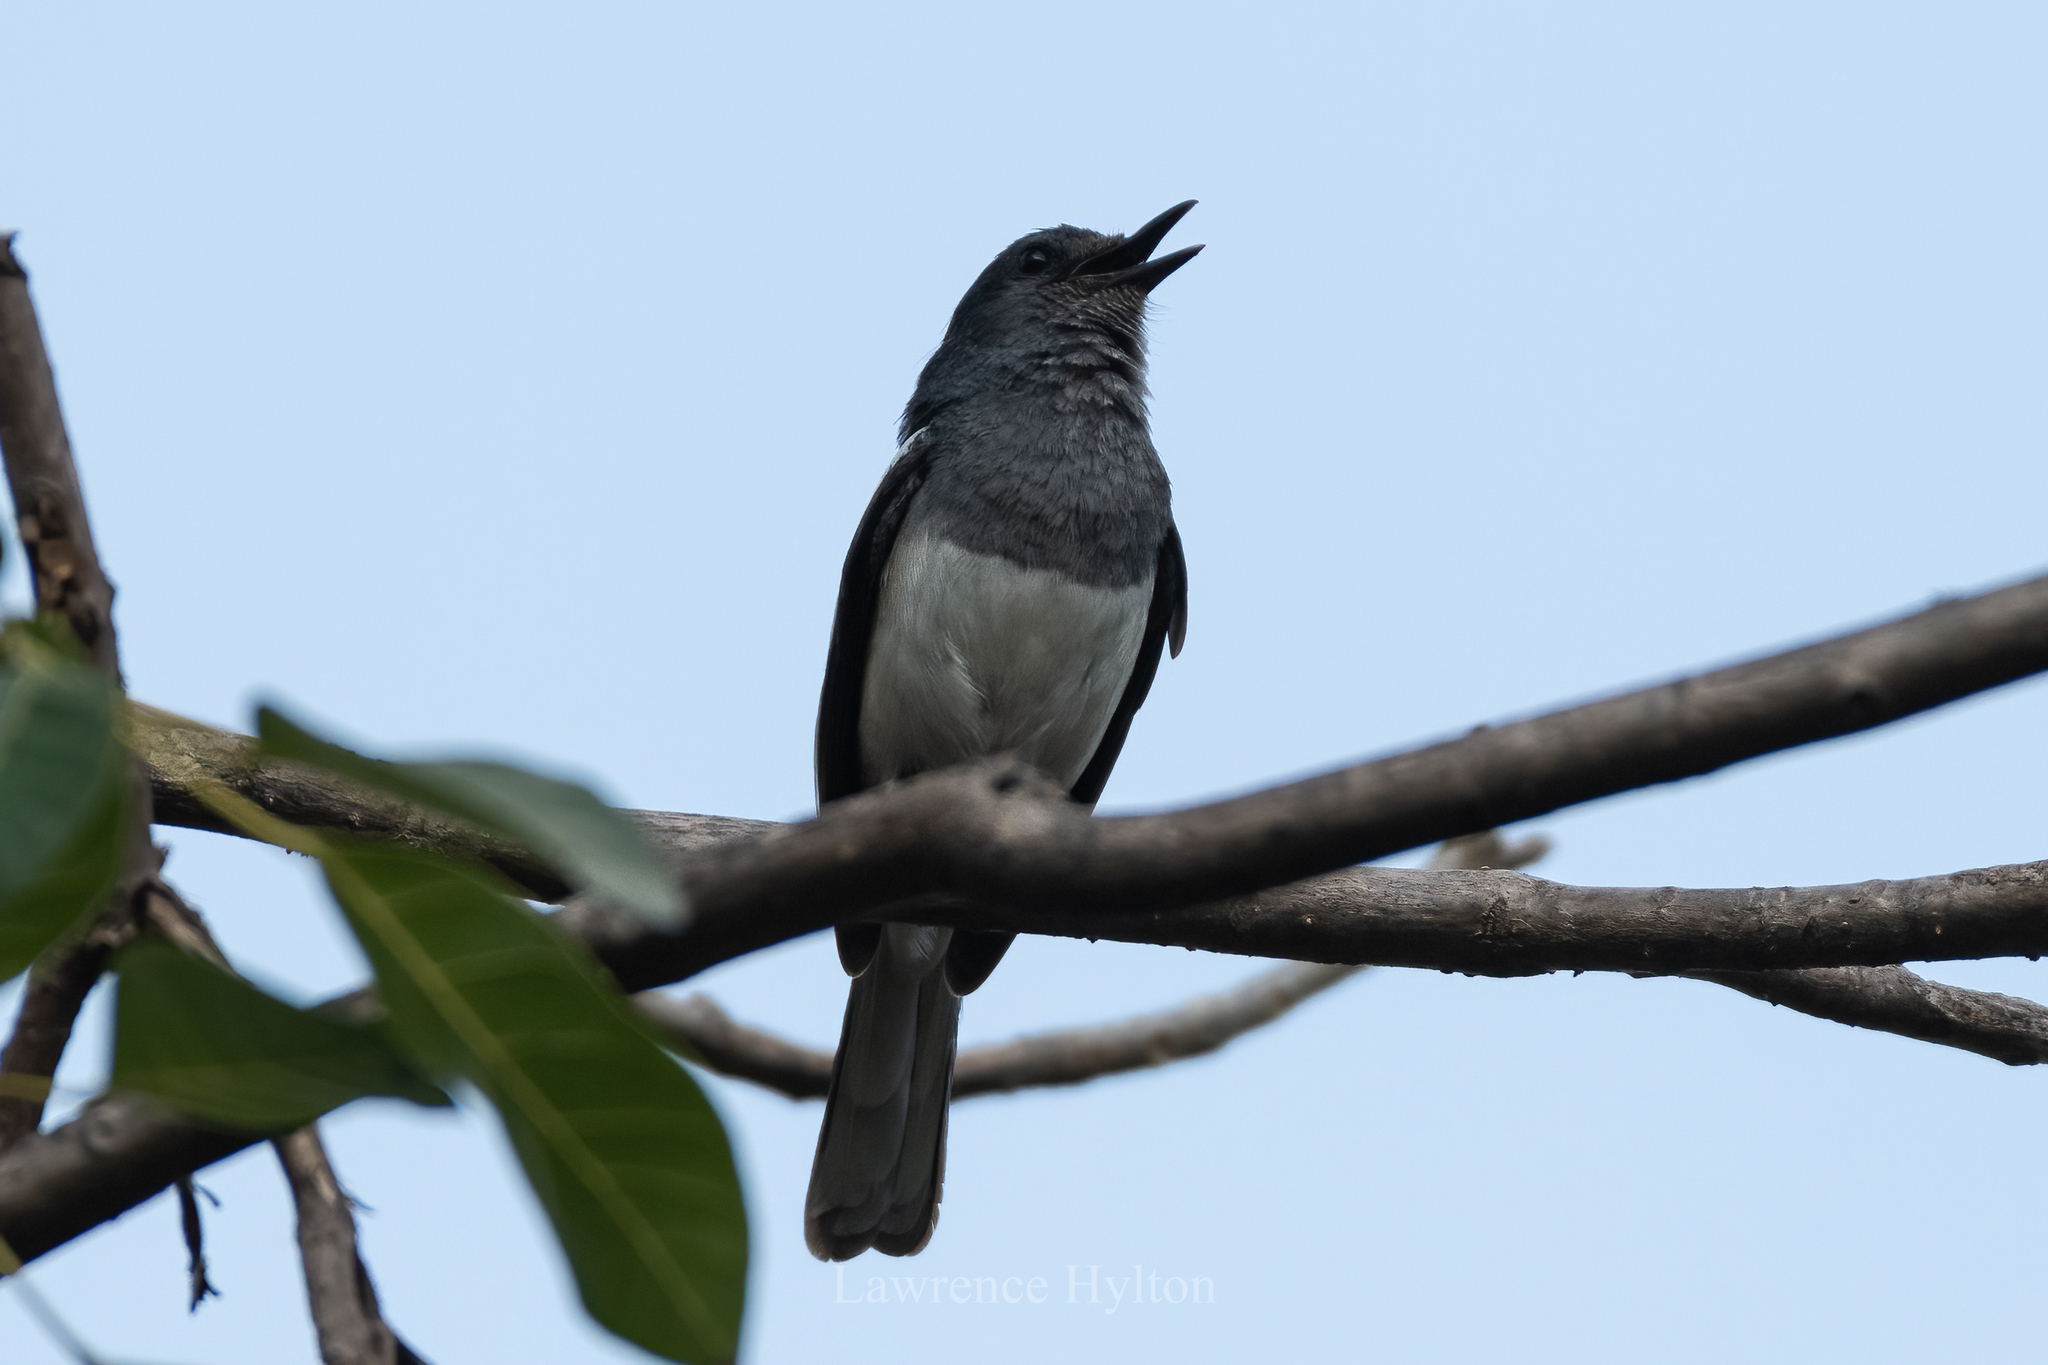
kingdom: Animalia
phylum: Chordata
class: Aves
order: Passeriformes
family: Muscicapidae
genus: Copsychus
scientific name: Copsychus saularis
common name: Oriental magpie-robin
